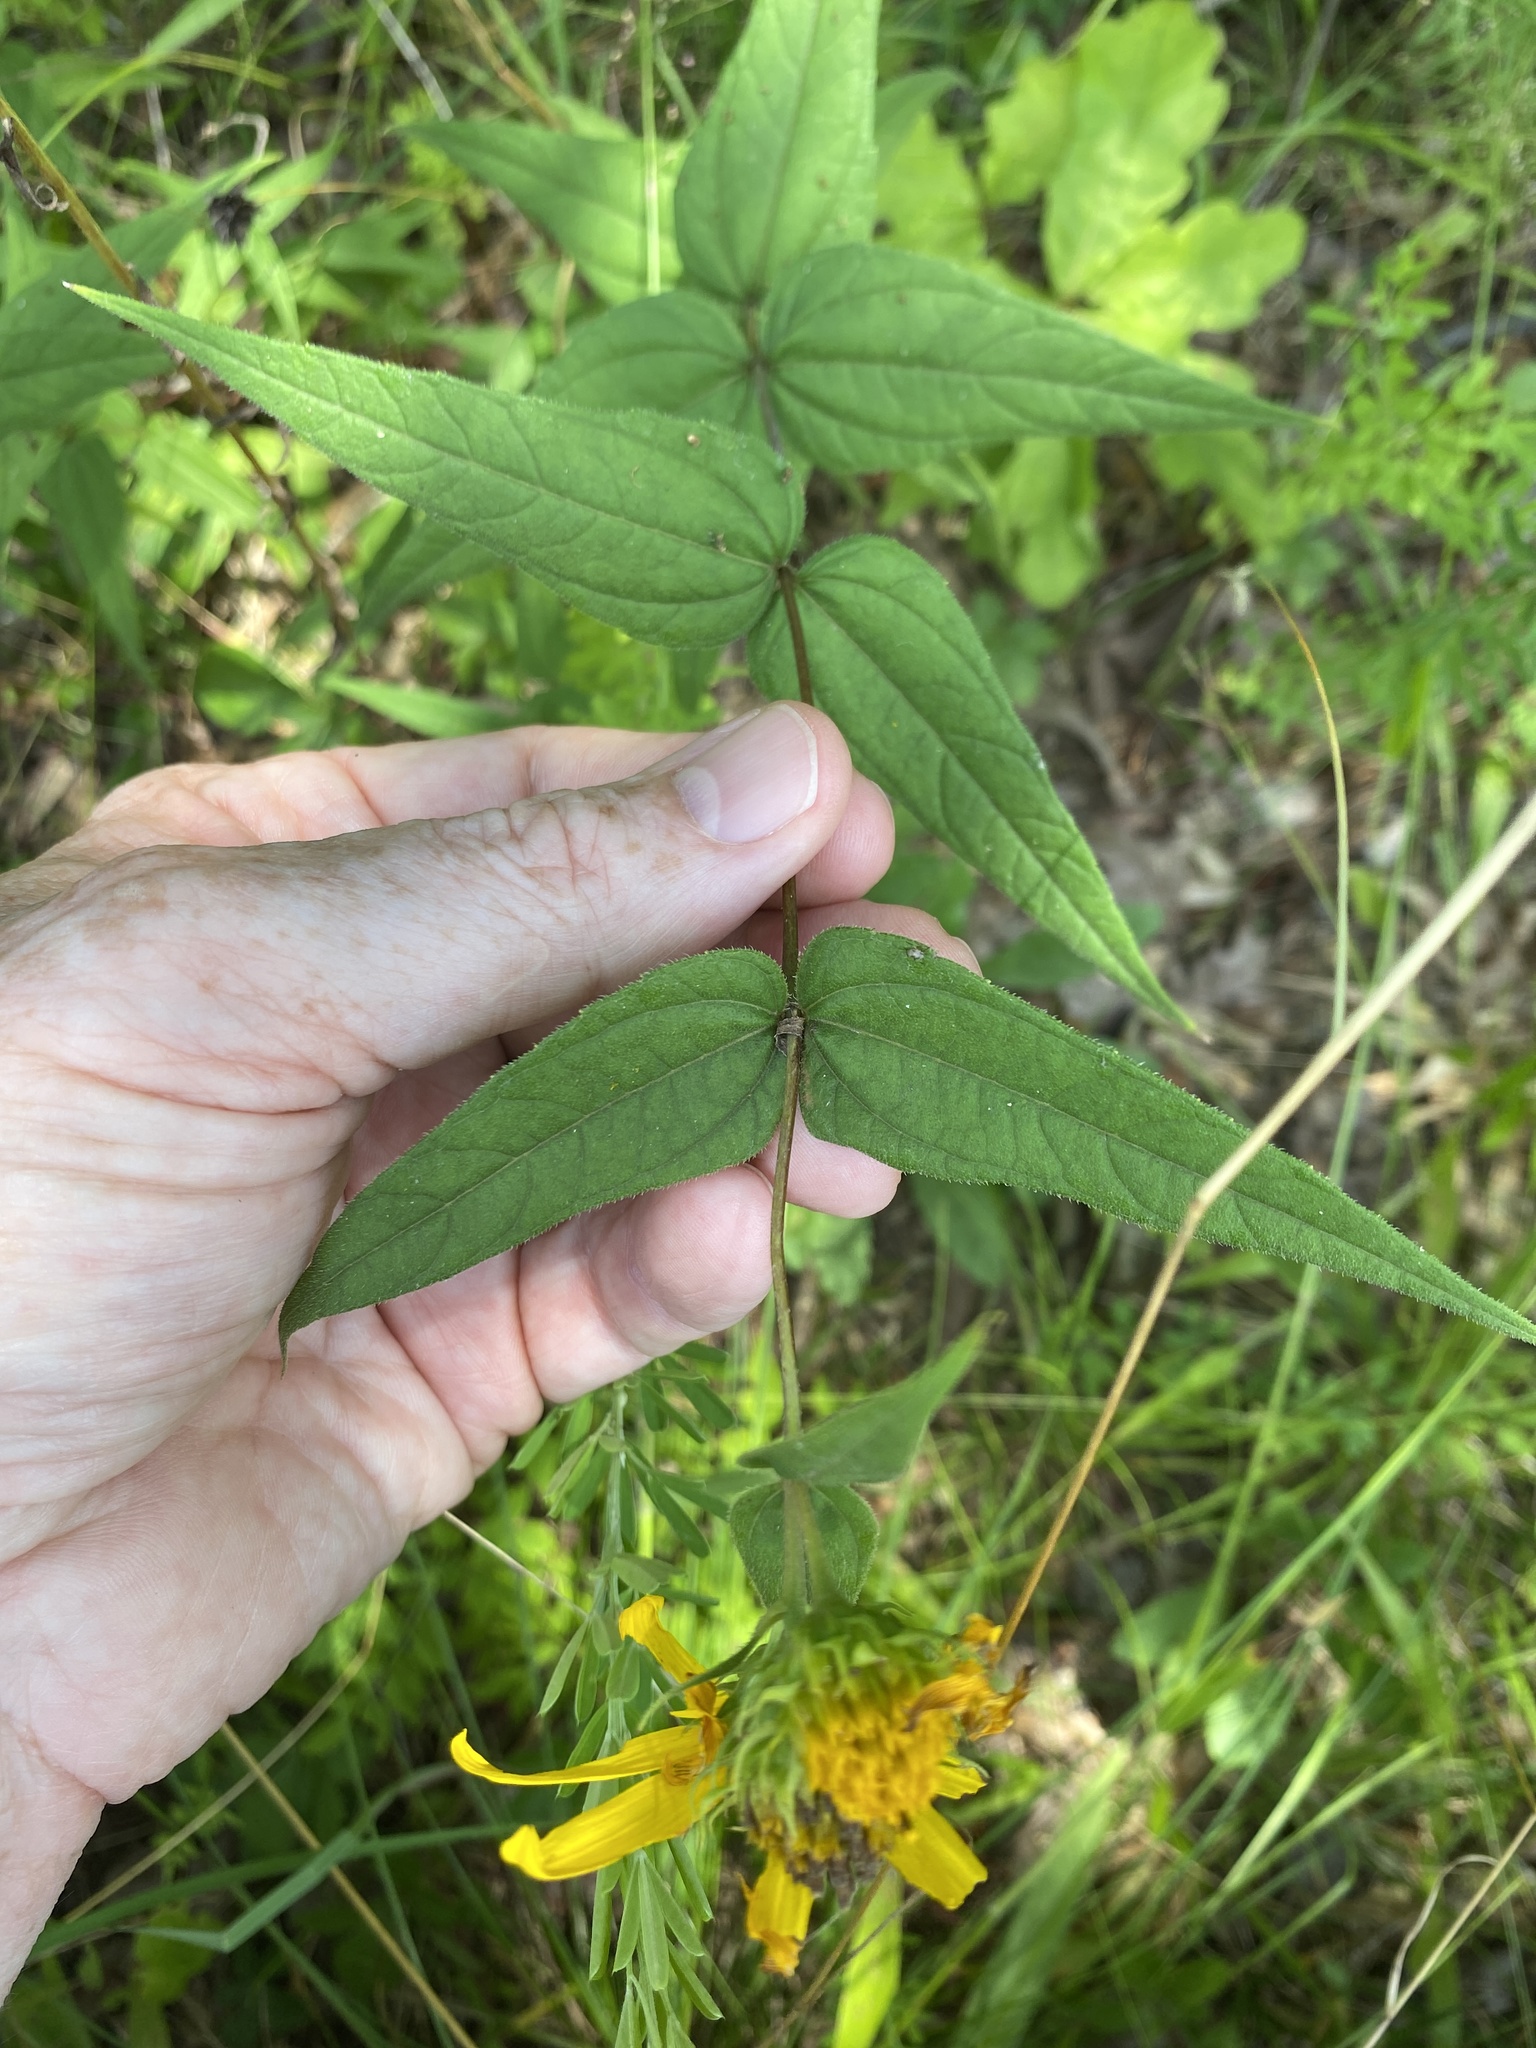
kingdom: Plantae
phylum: Tracheophyta
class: Magnoliopsida
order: Asterales
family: Asteraceae
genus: Helianthus
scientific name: Helianthus divaricatus
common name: Divergent sunflower
